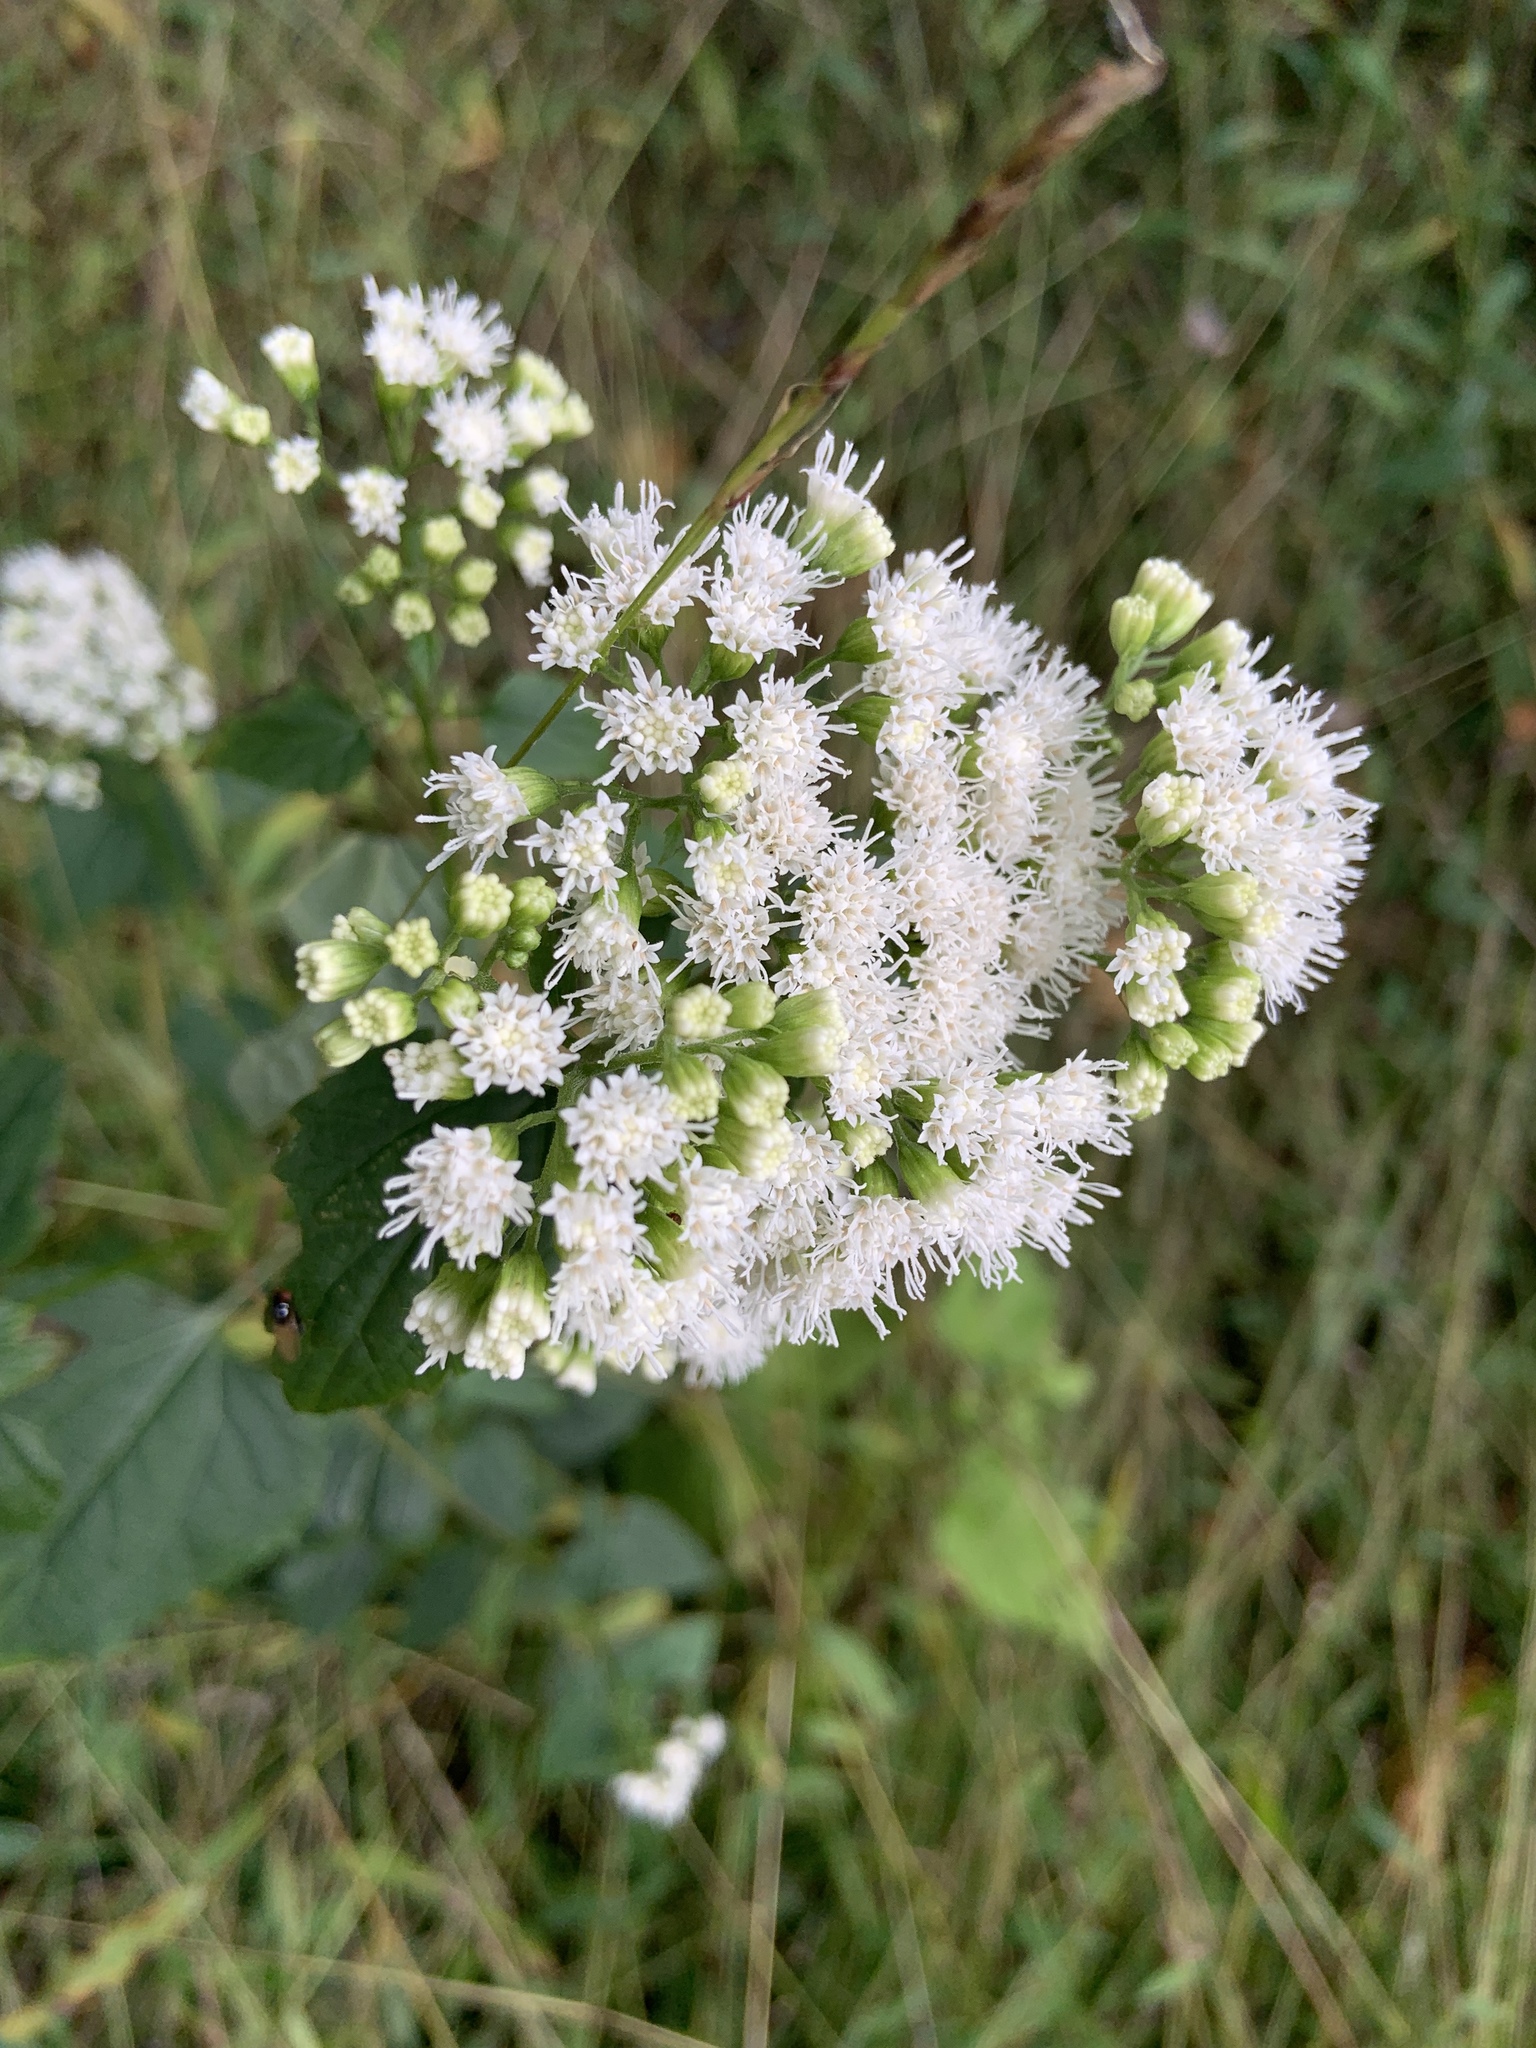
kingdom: Plantae
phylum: Tracheophyta
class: Magnoliopsida
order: Asterales
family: Asteraceae
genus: Ageratina
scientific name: Ageratina altissima
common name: White snakeroot
